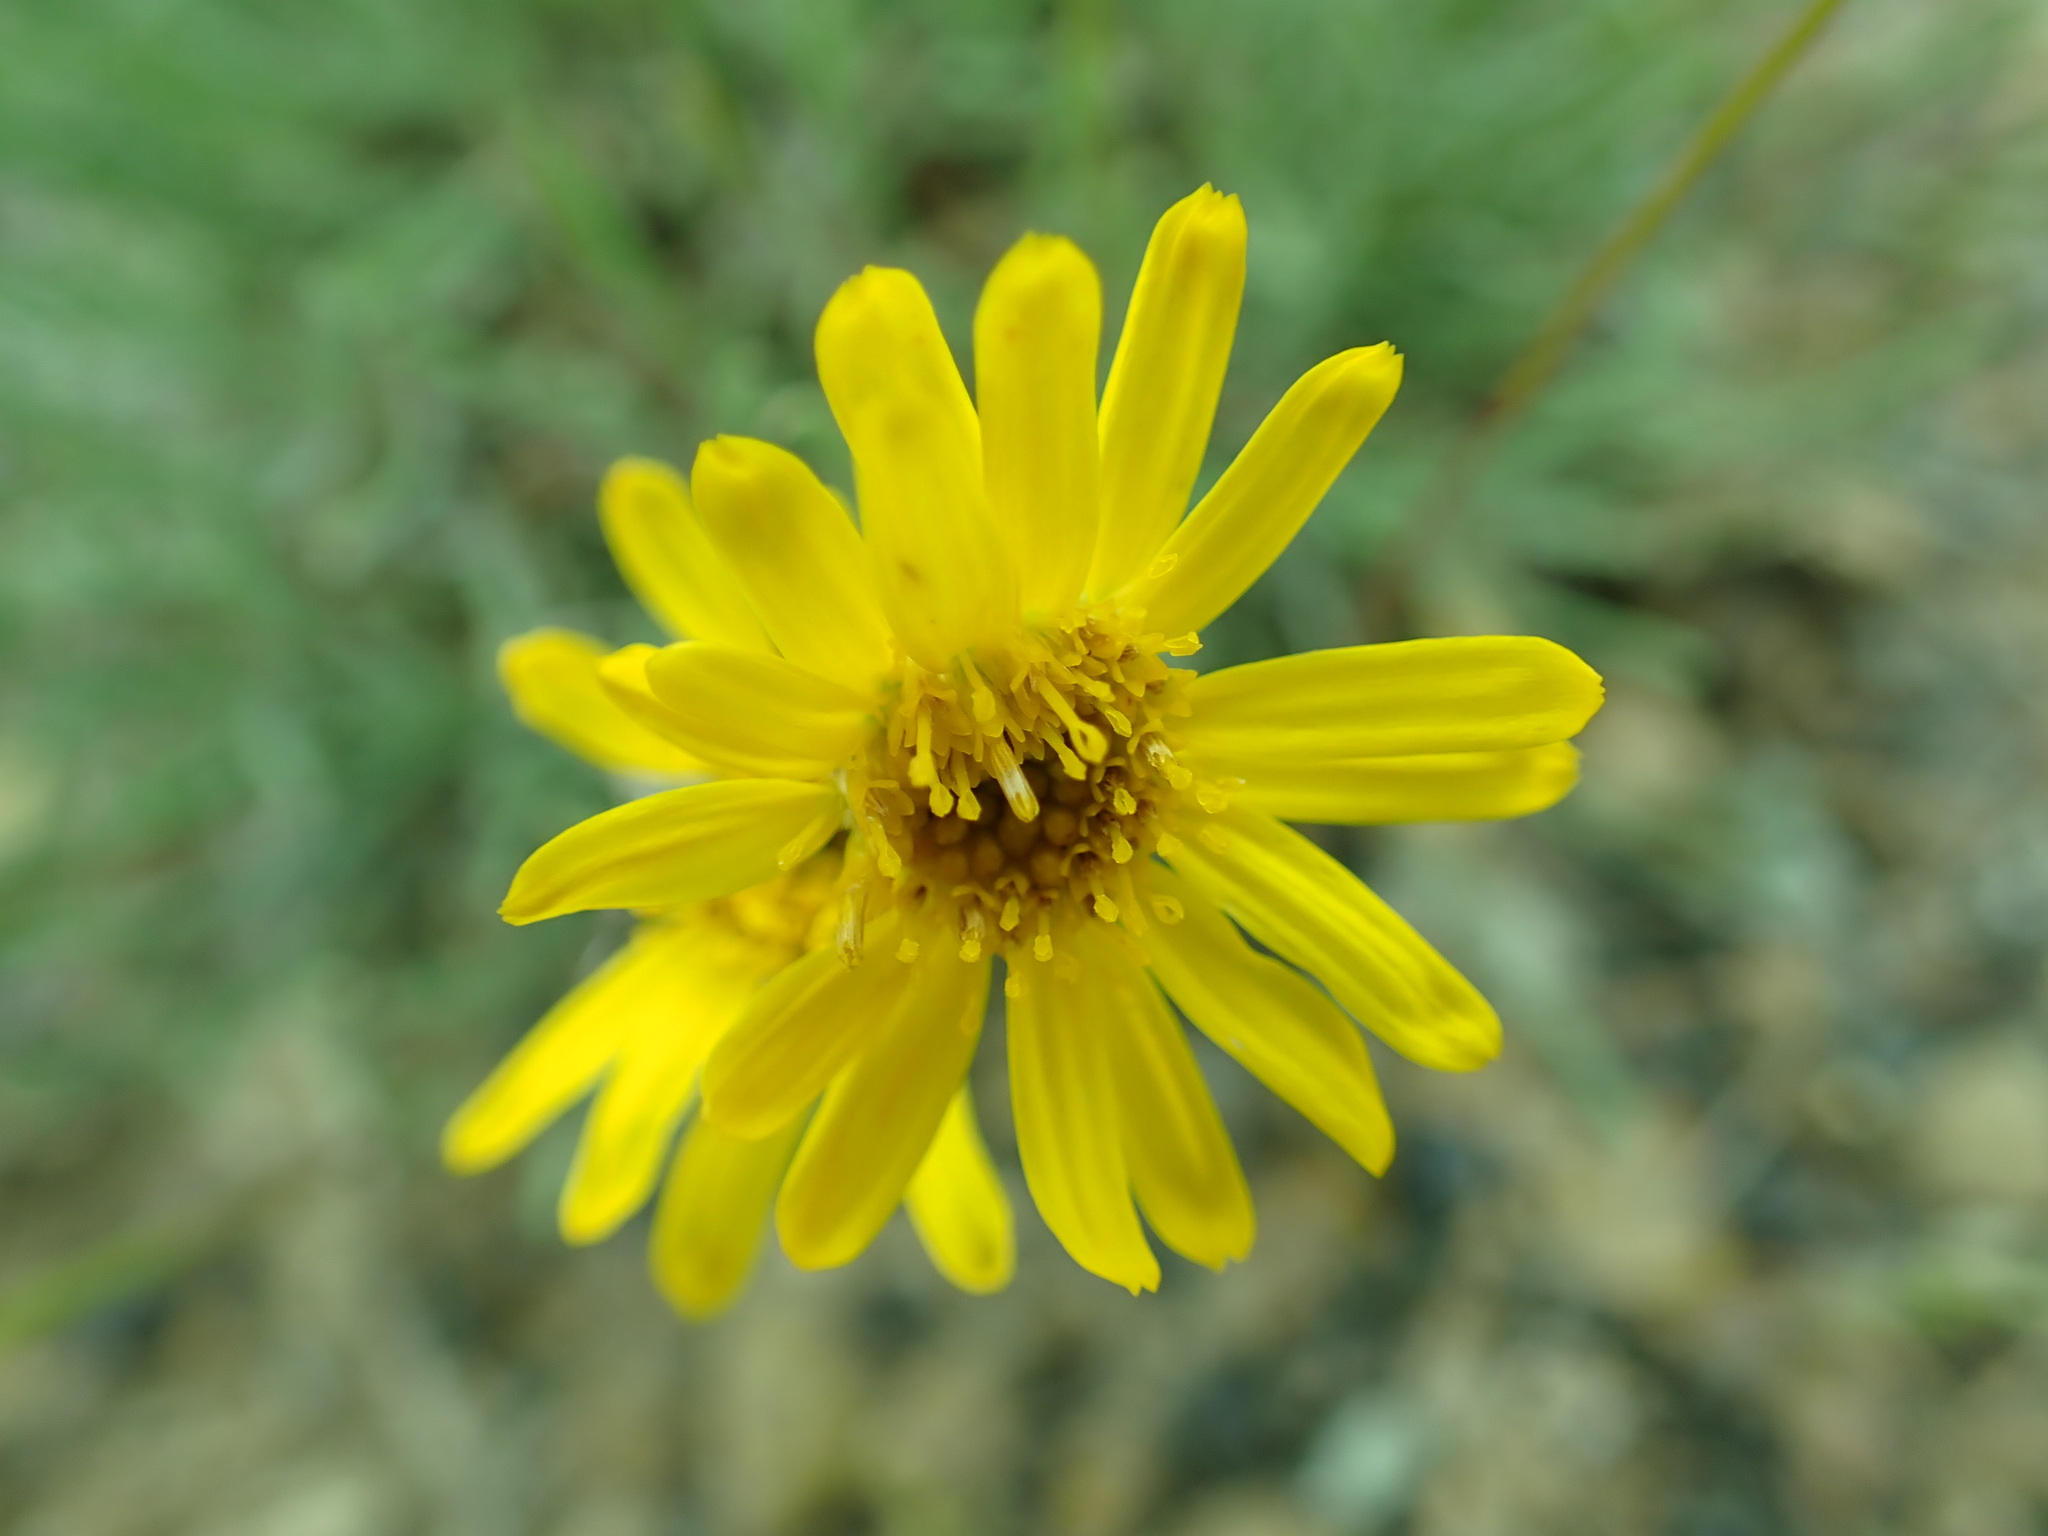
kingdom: Plantae
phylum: Tracheophyta
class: Magnoliopsida
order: Asterales
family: Asteraceae
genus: Erigeron
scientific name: Erigeron linearis
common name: Desert yellow fleabane
